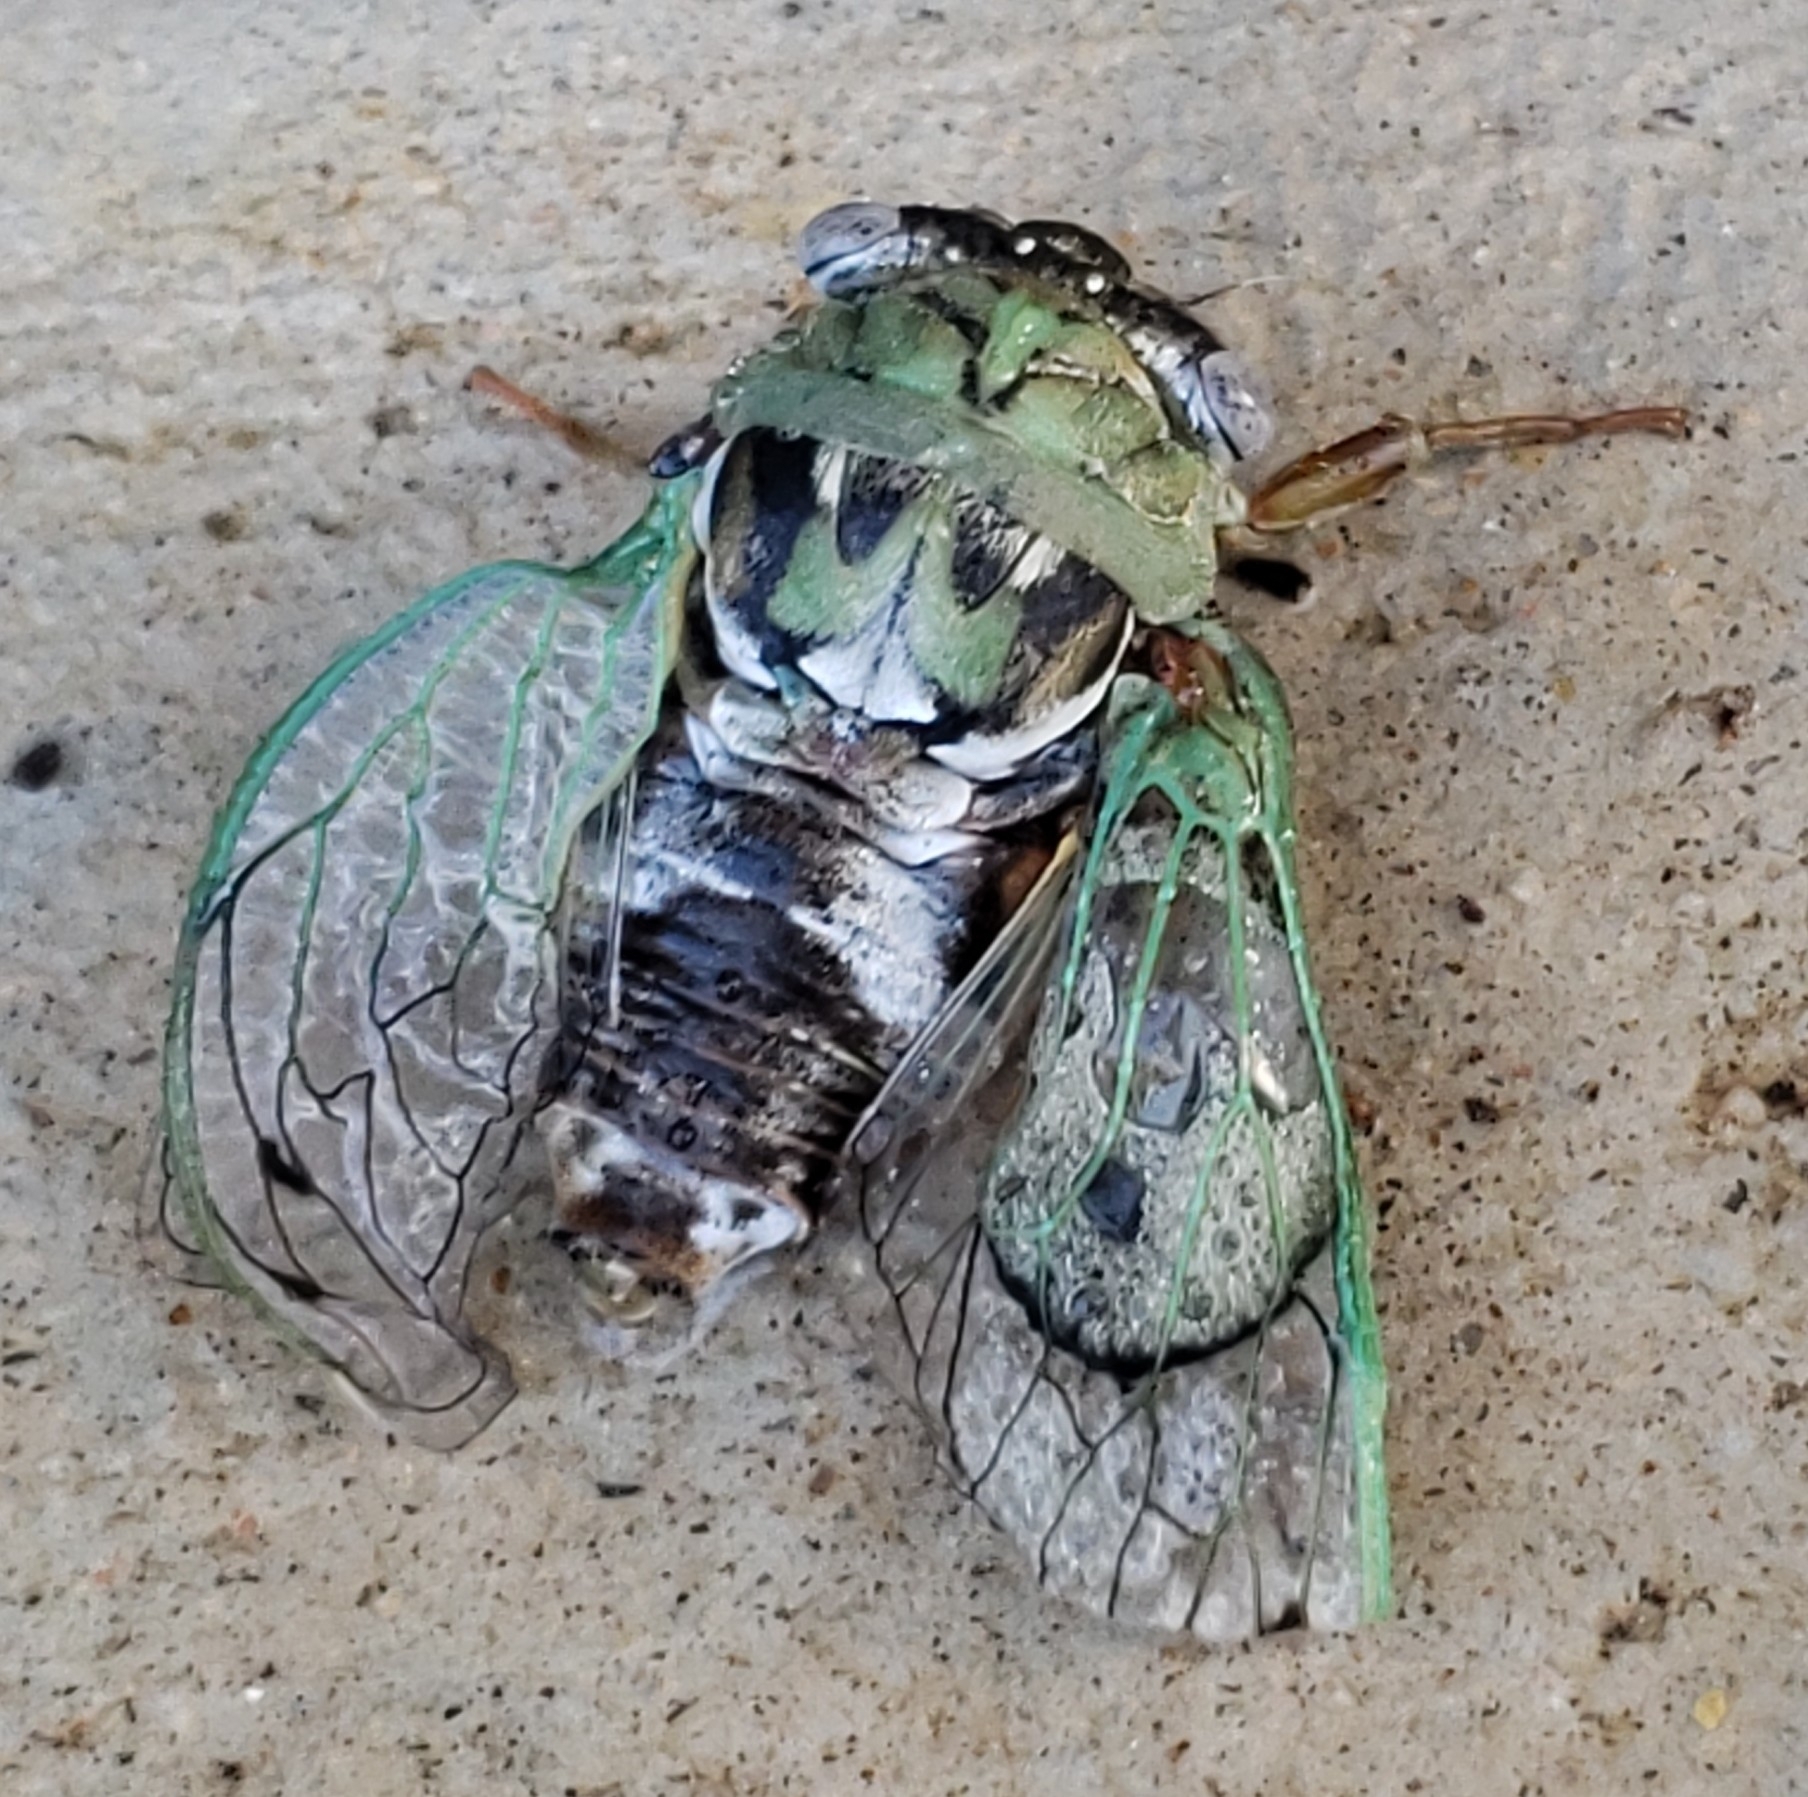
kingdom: Animalia
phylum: Arthropoda
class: Insecta
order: Hemiptera
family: Cicadidae
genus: Megatibicen
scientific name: Megatibicen resh
